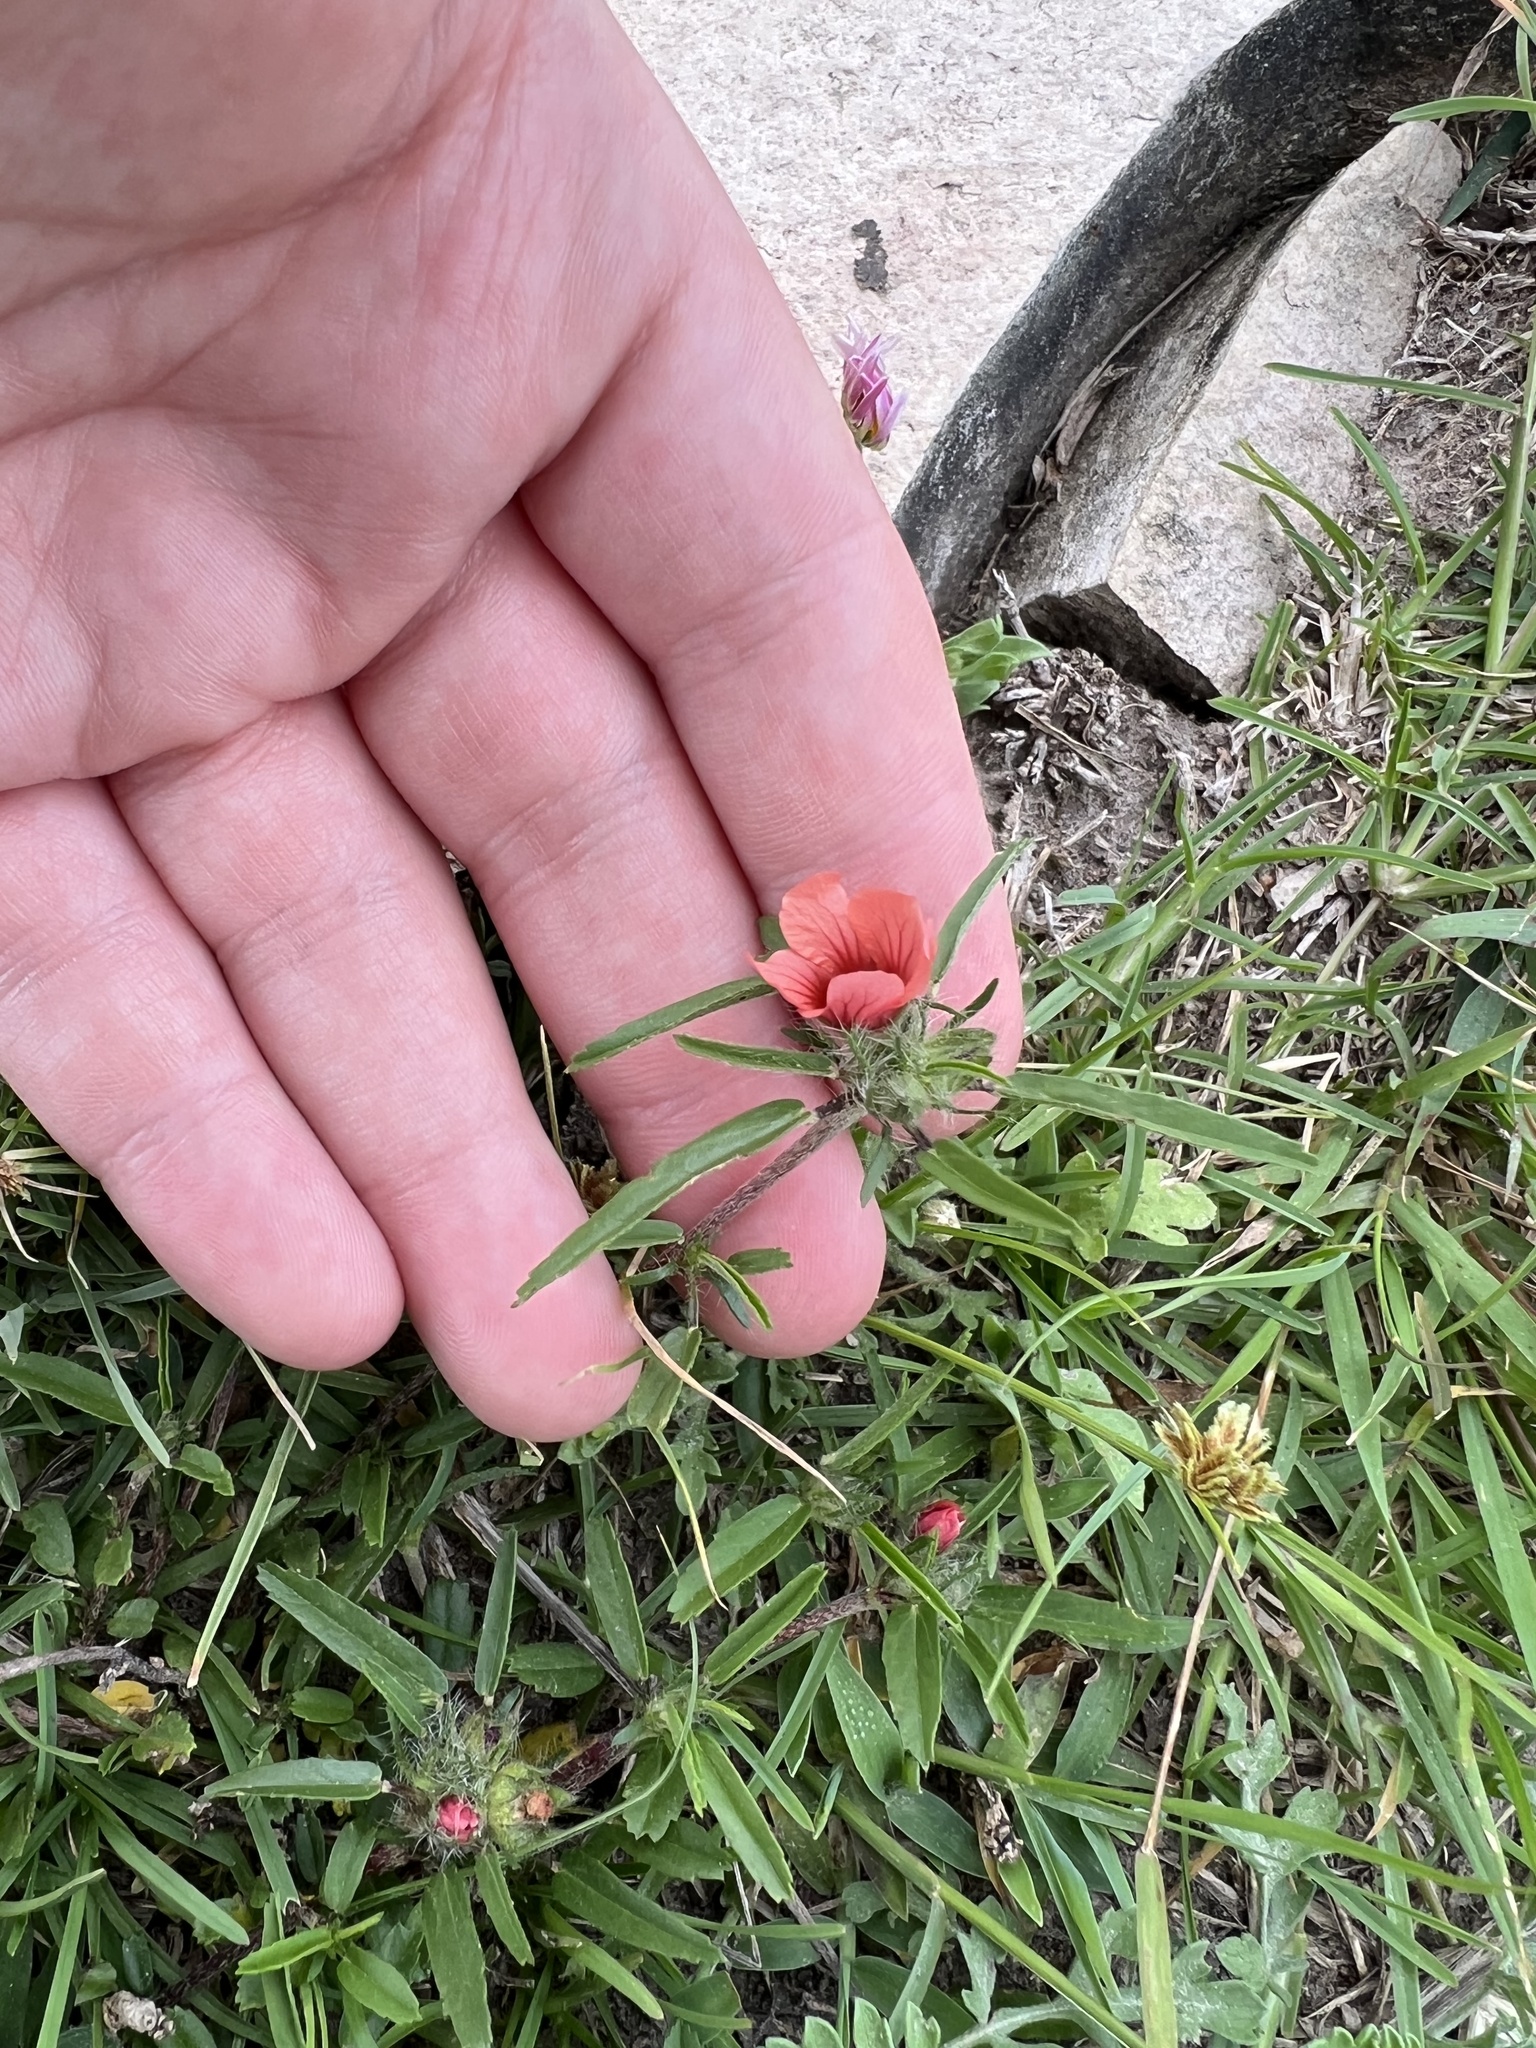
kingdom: Plantae
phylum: Tracheophyta
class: Magnoliopsida
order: Malvales
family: Malvaceae
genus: Sida
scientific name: Sida ciliaris
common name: Bracted fanpetals
